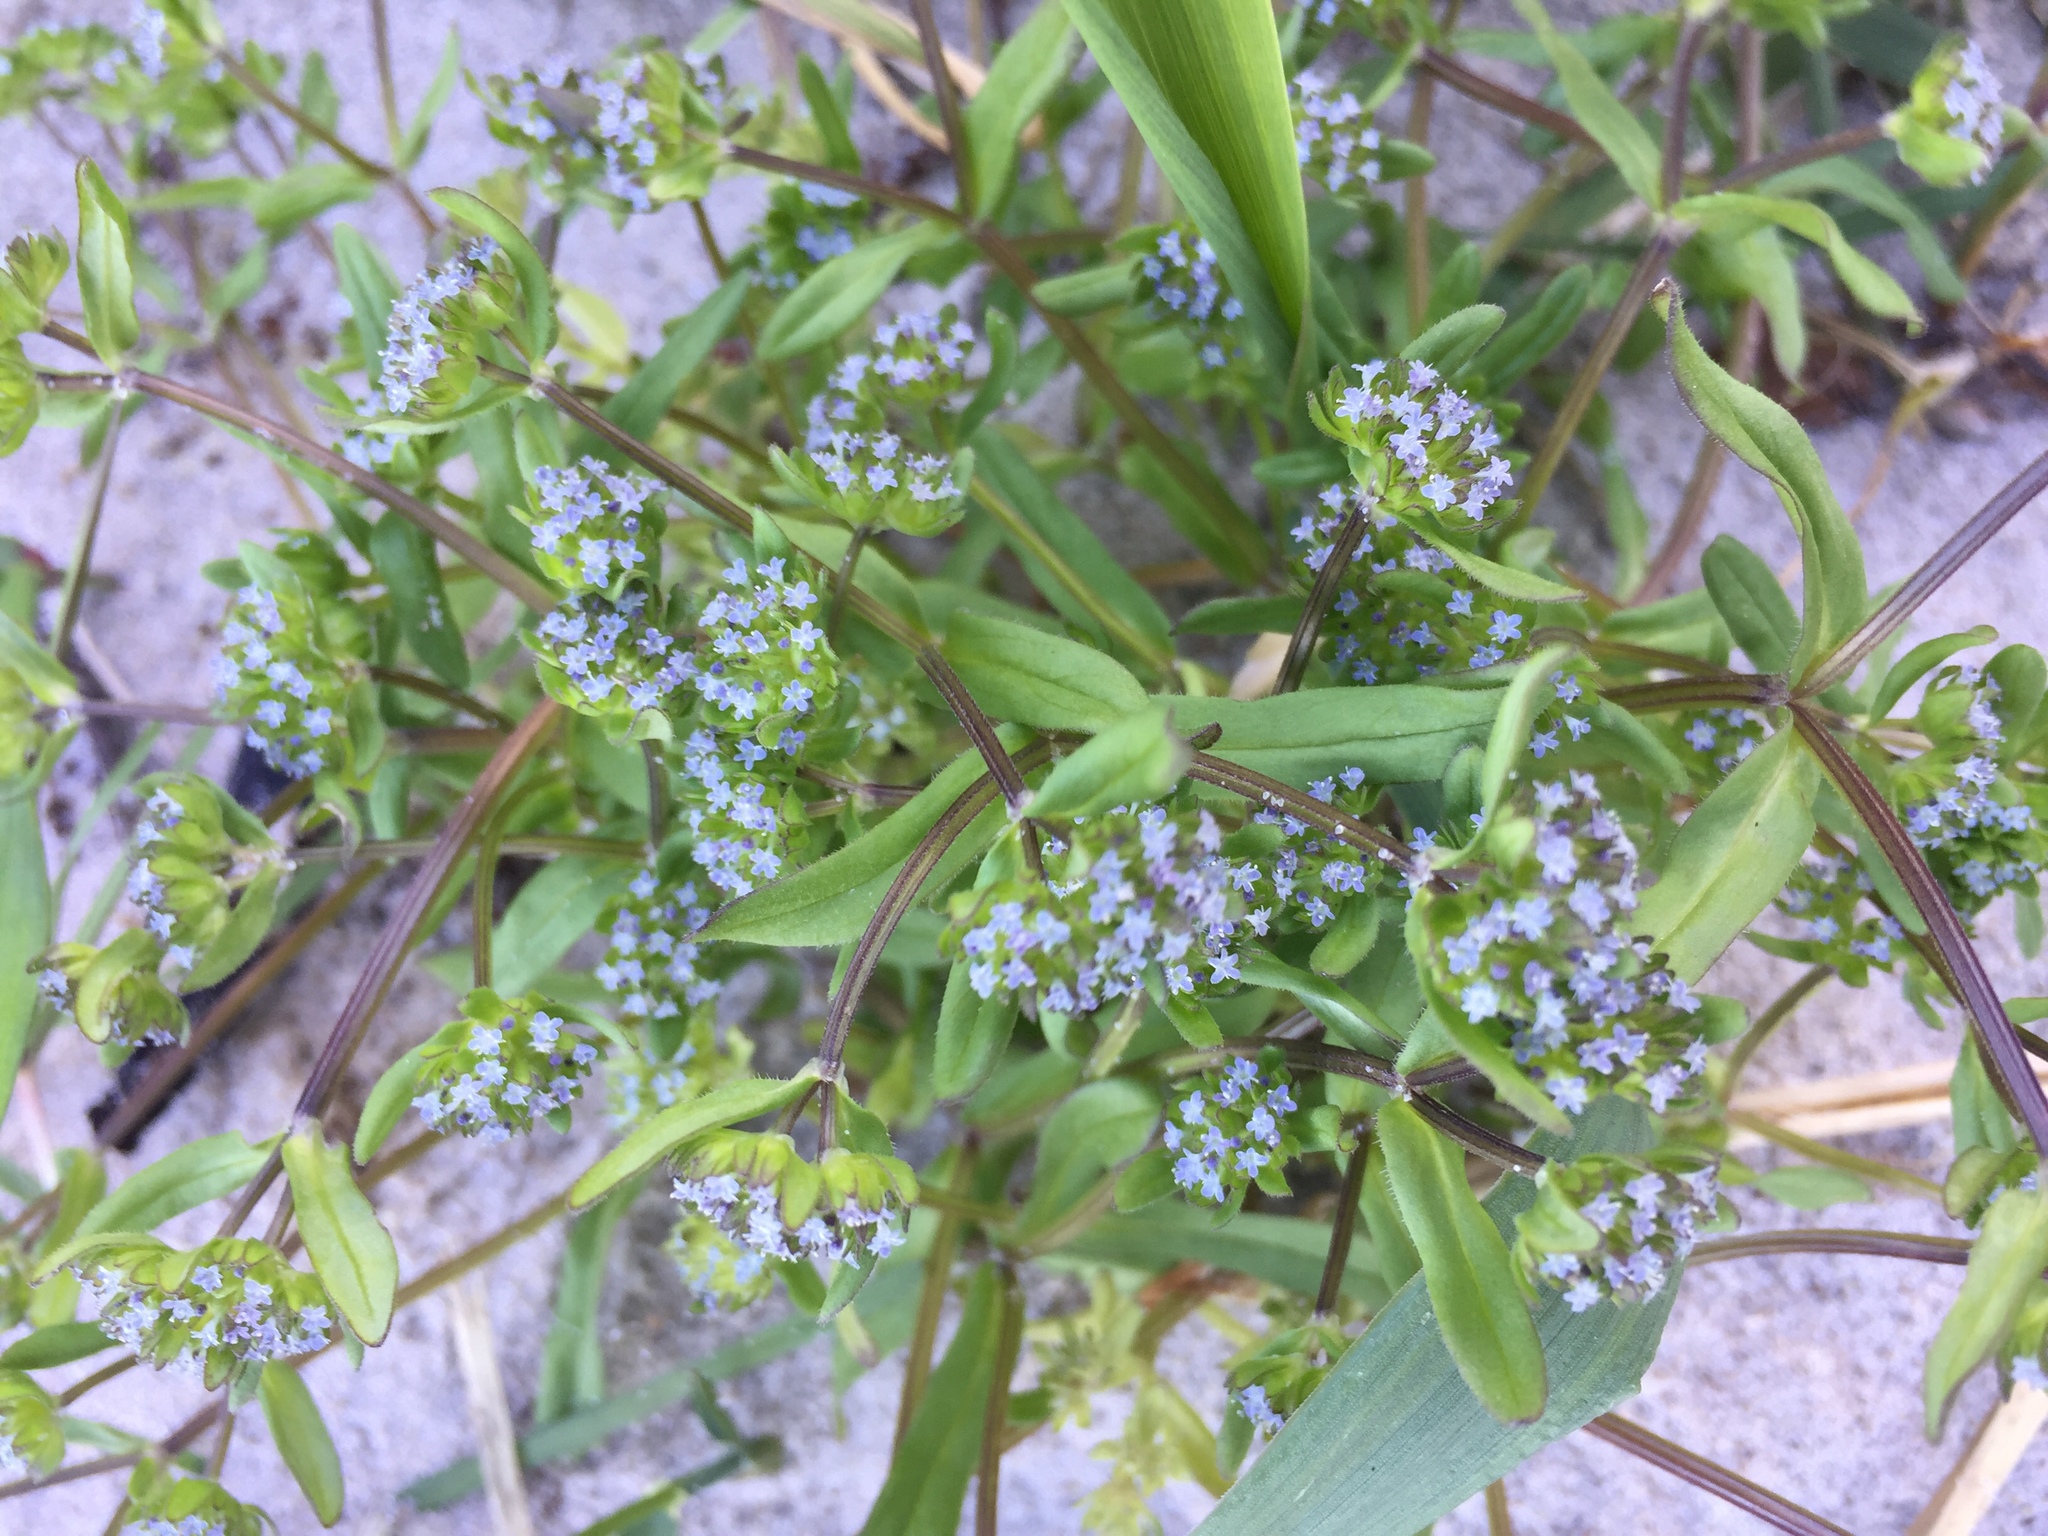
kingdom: Plantae
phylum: Tracheophyta
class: Magnoliopsida
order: Dipsacales
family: Caprifoliaceae
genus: Valerianella
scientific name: Valerianella locusta
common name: Common cornsalad
